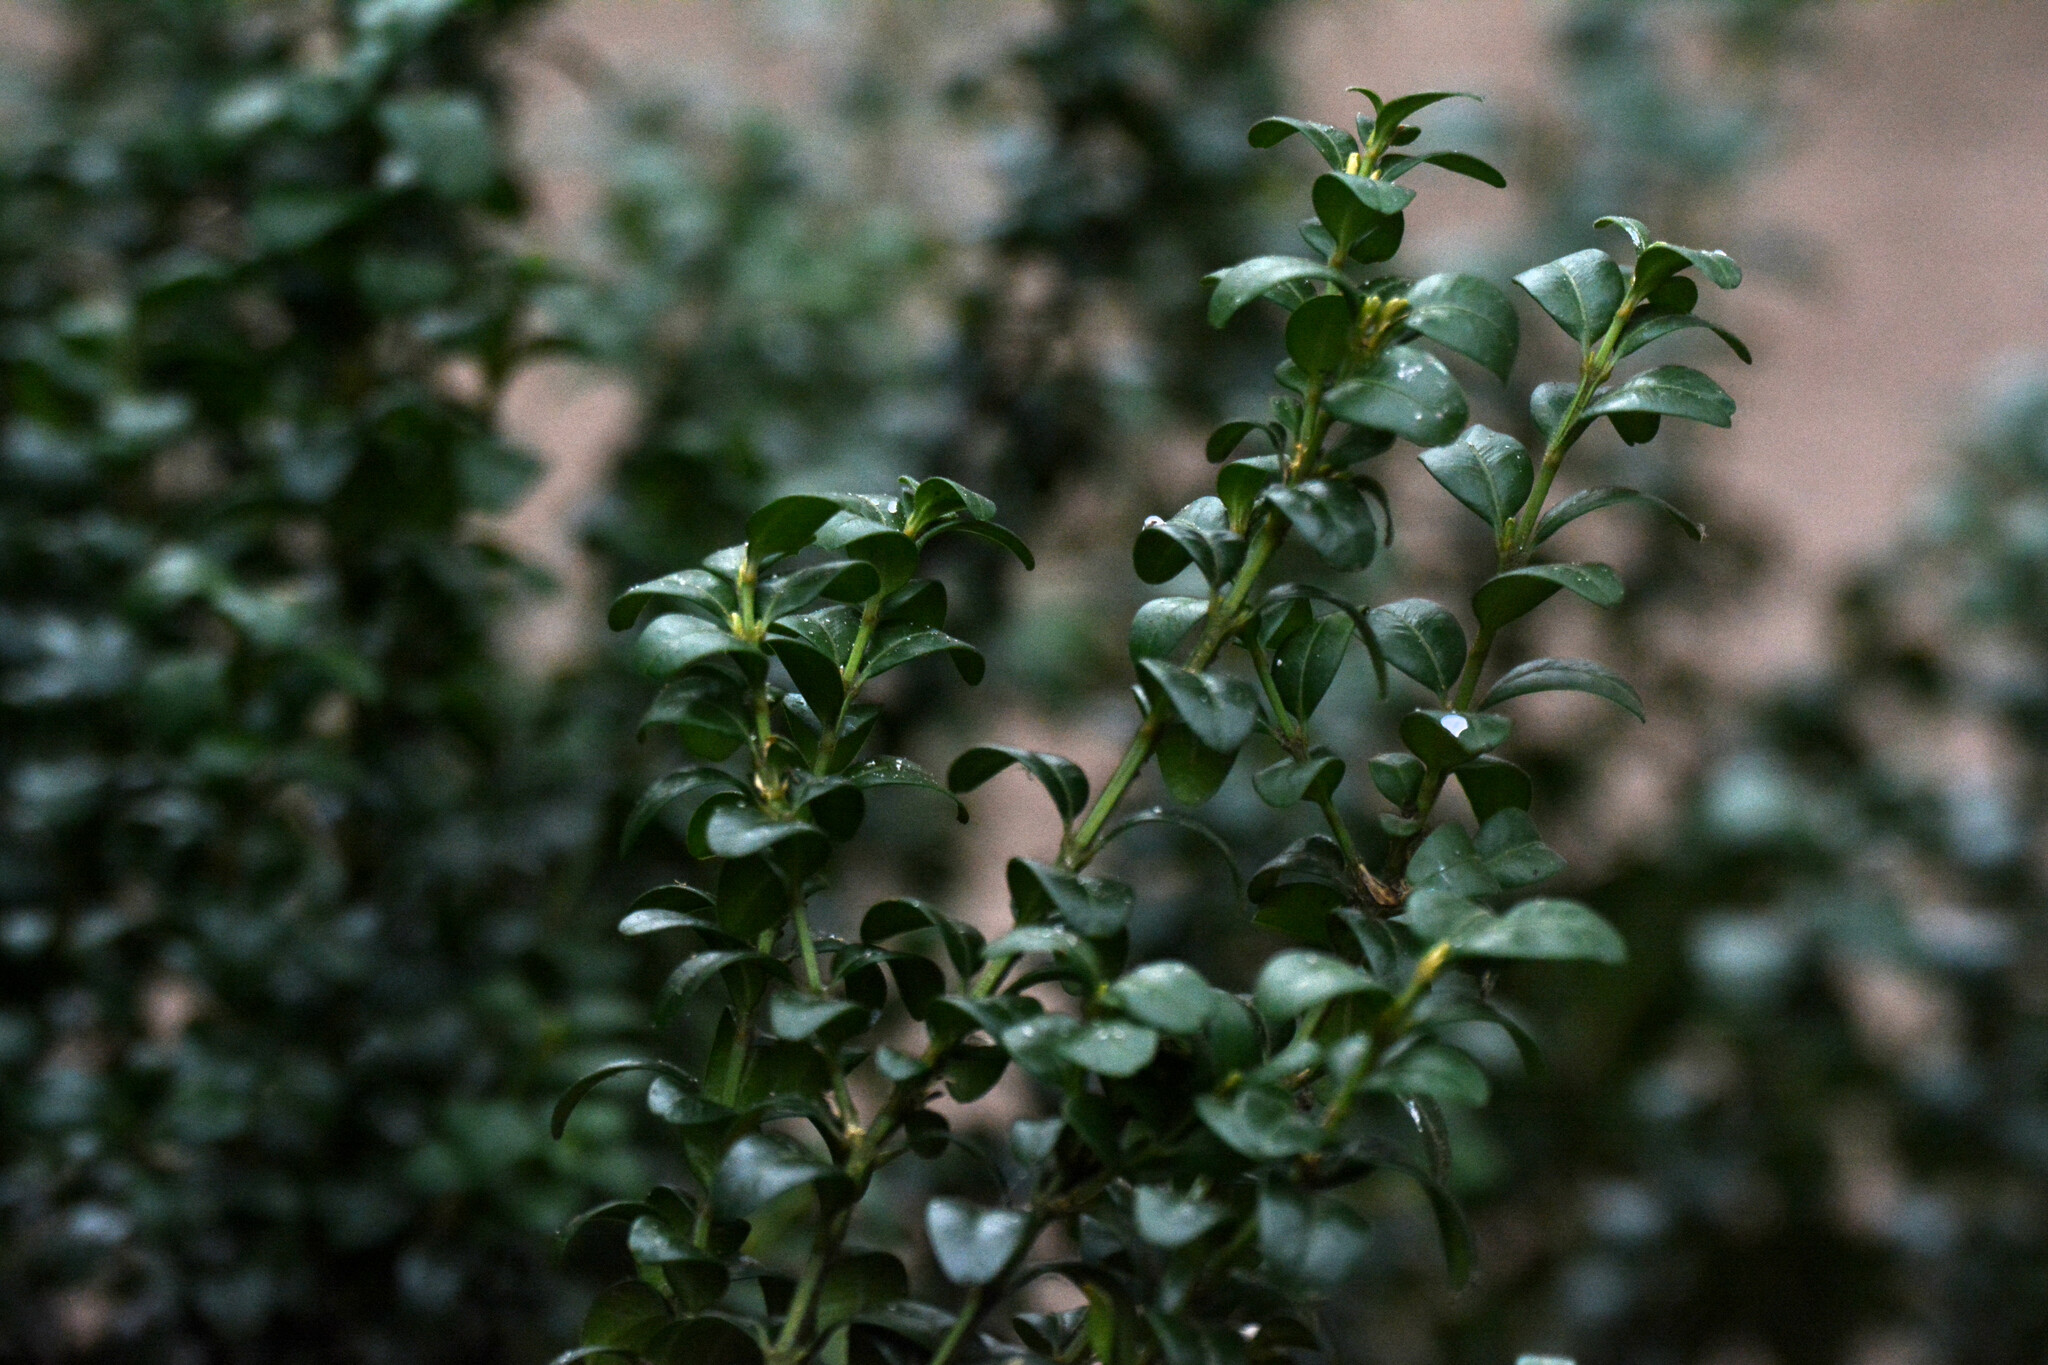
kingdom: Plantae
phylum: Tracheophyta
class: Magnoliopsida
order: Buxales
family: Buxaceae
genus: Buxus
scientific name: Buxus sempervirens
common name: Box
